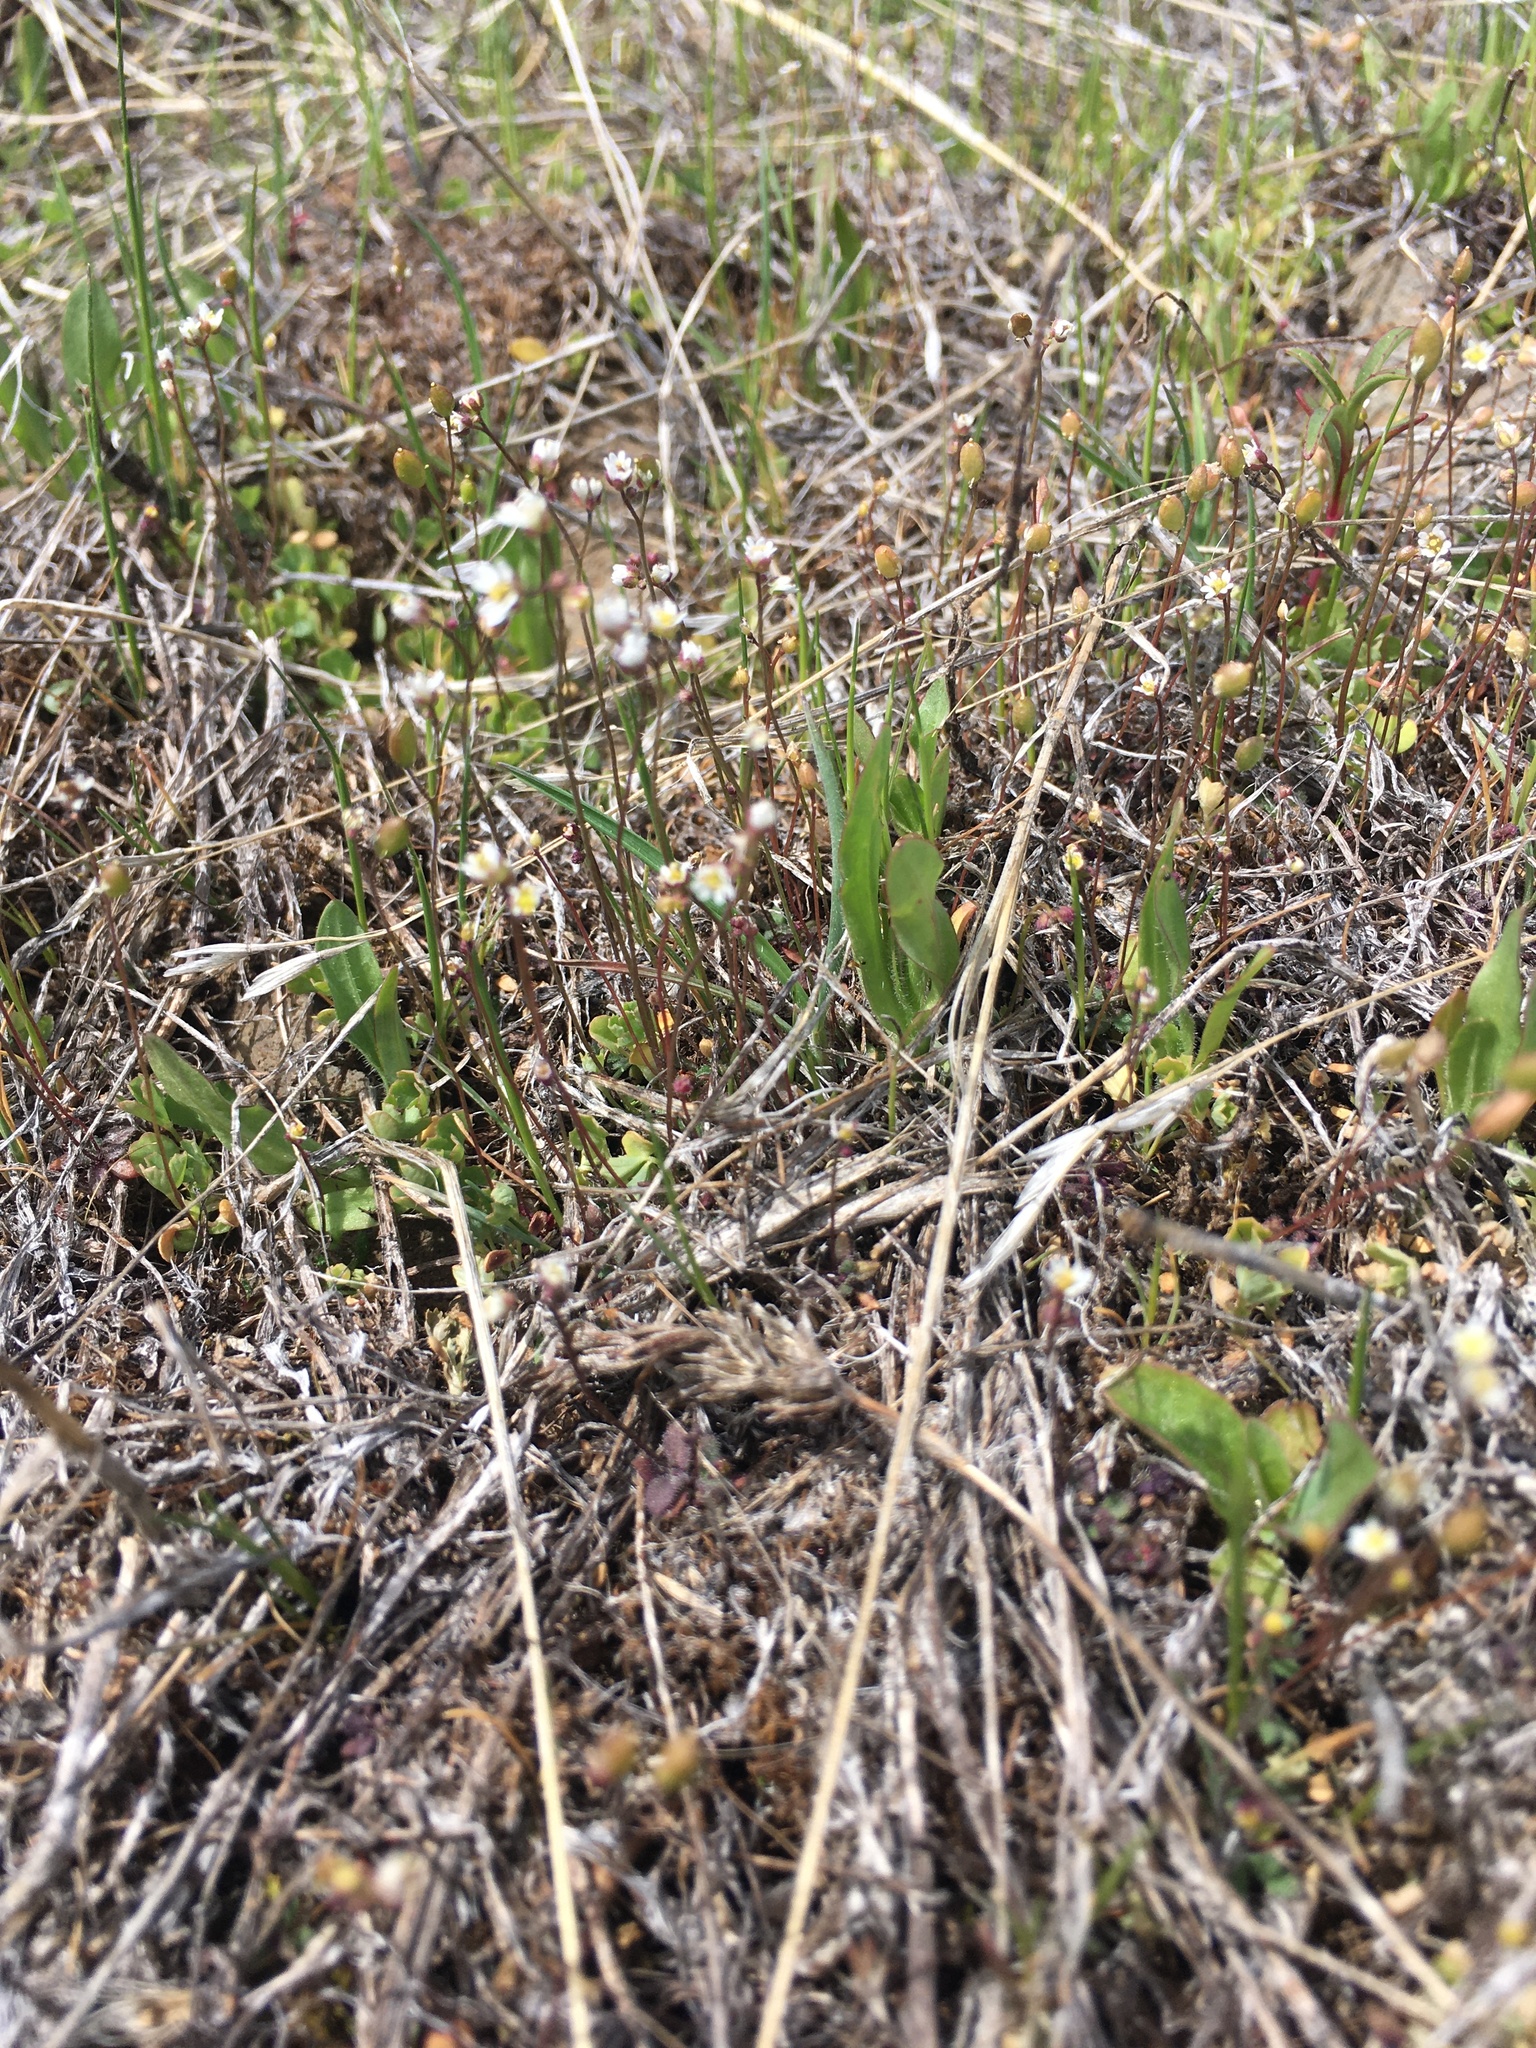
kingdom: Plantae
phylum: Tracheophyta
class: Magnoliopsida
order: Brassicales
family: Brassicaceae
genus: Draba
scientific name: Draba verna
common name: Spring draba
